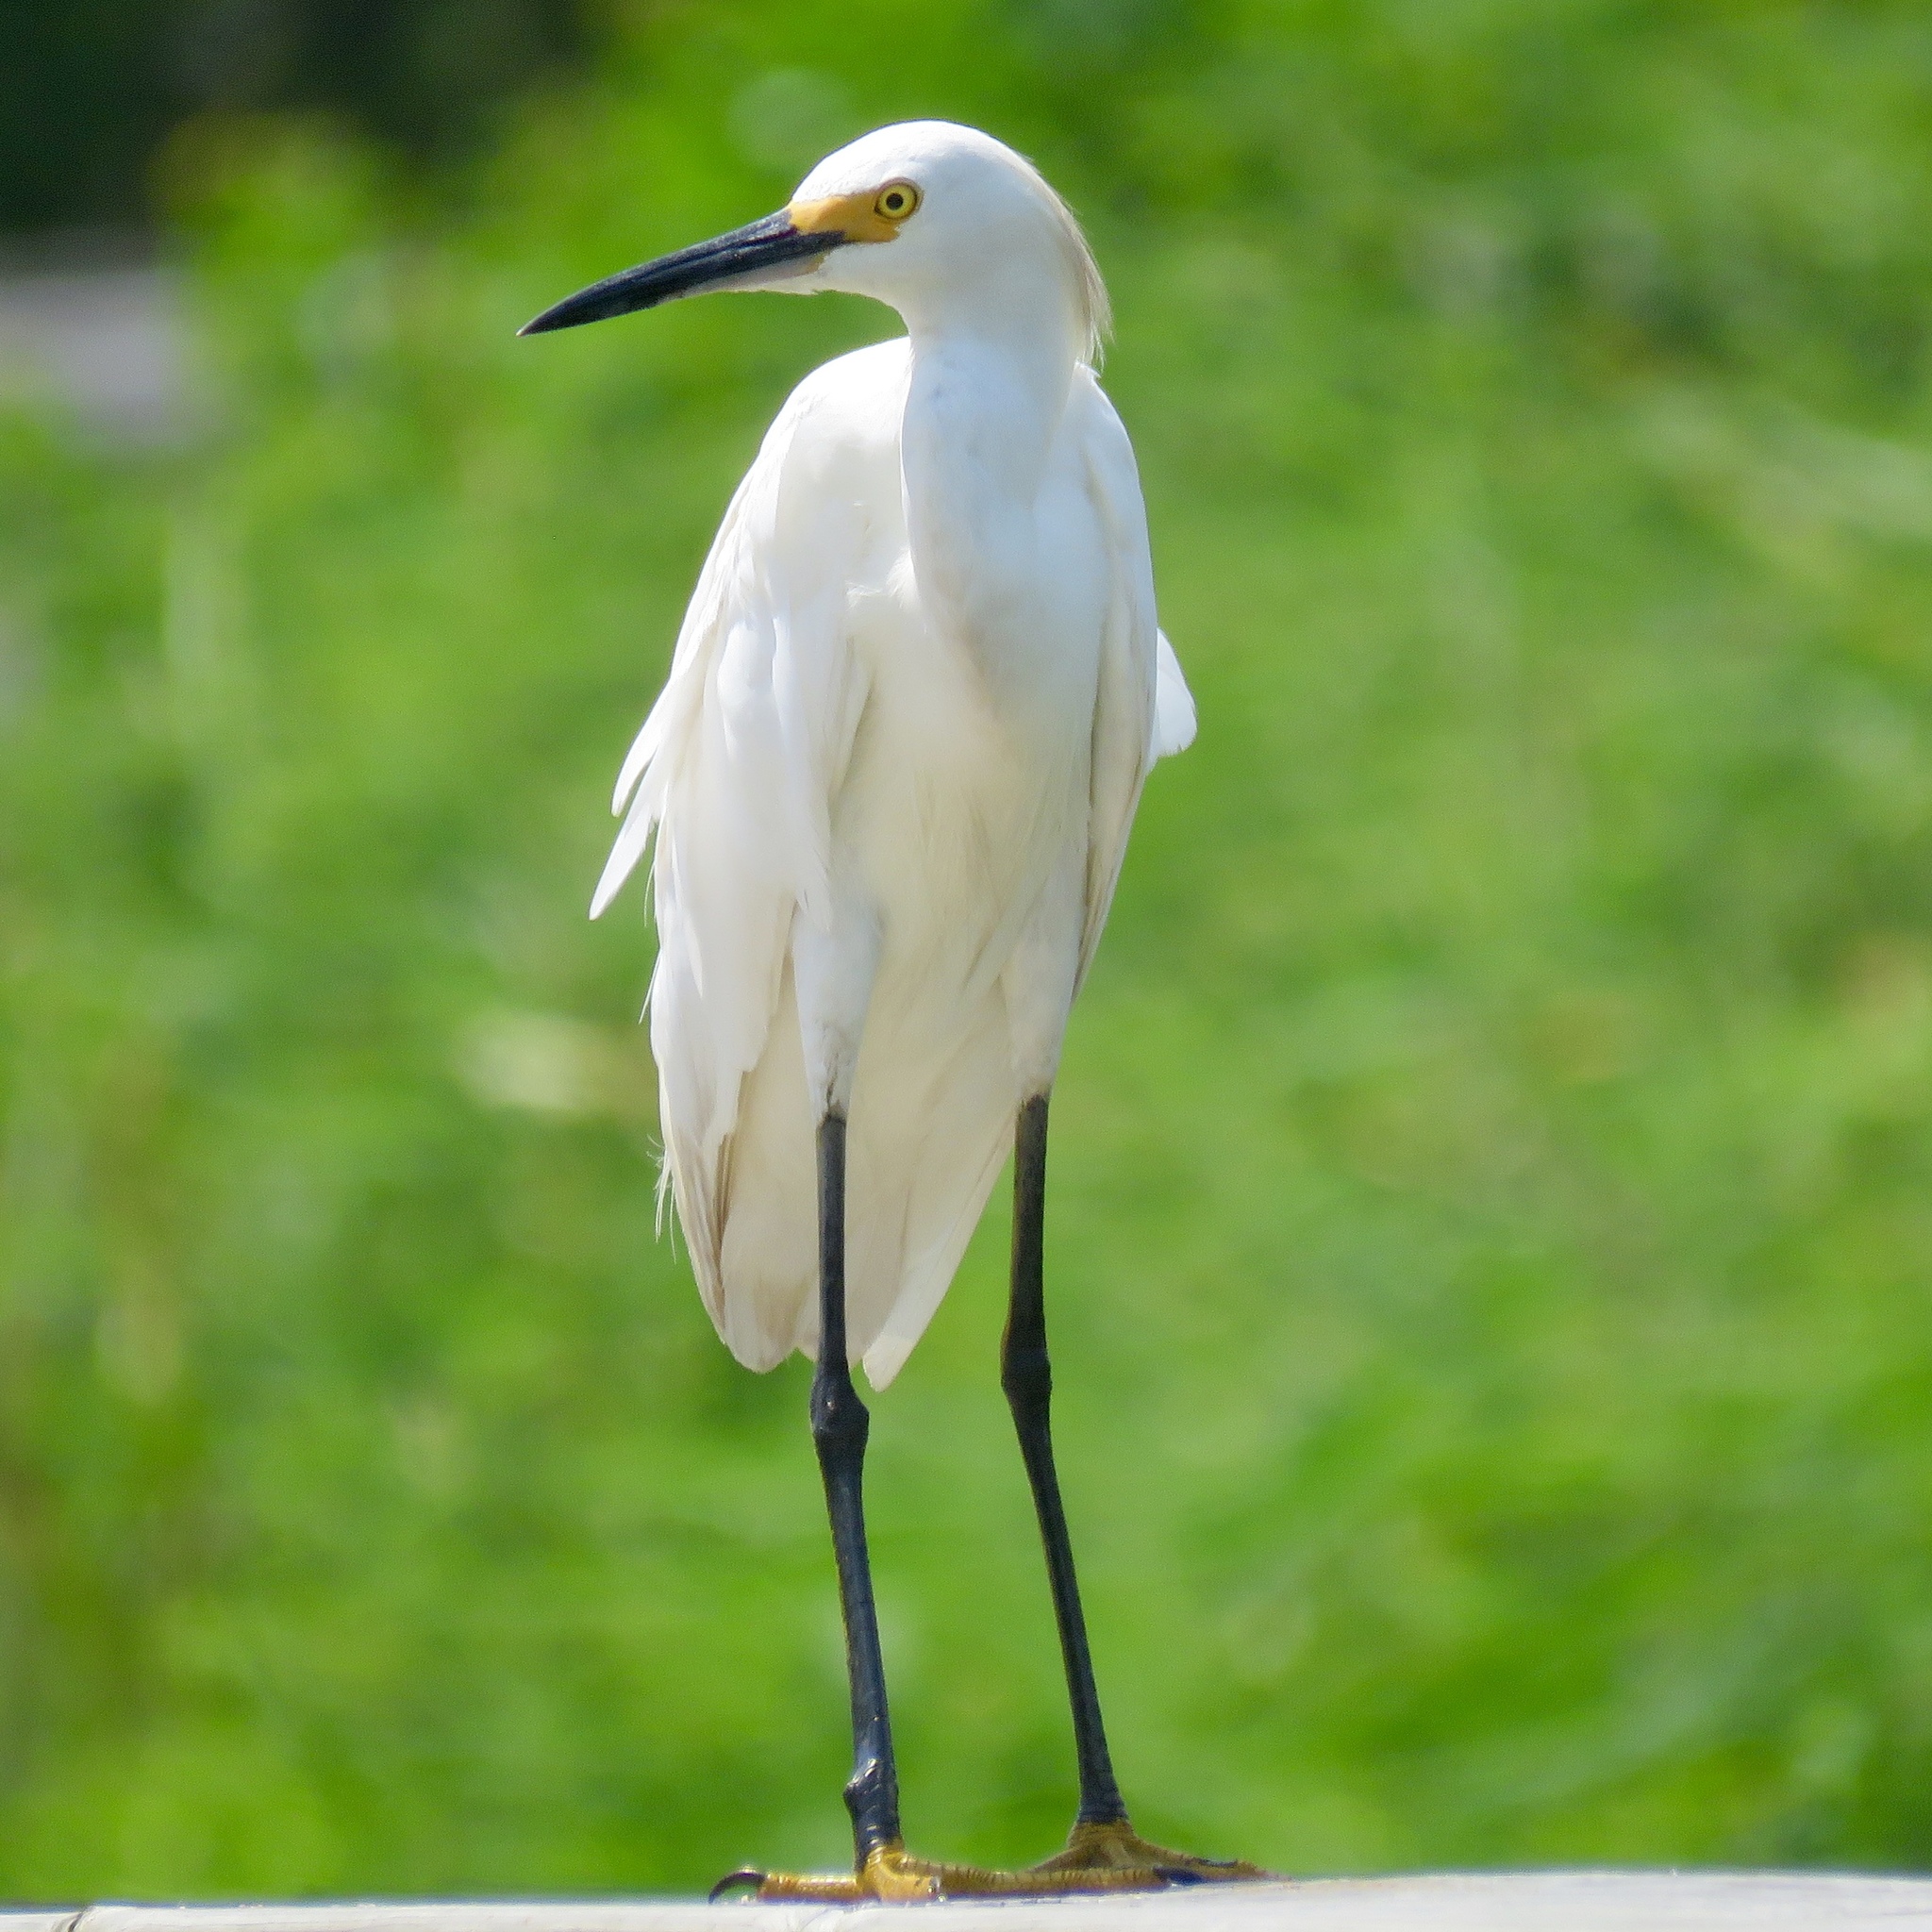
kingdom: Animalia
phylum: Chordata
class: Aves
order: Pelecaniformes
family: Ardeidae
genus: Egretta
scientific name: Egretta thula
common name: Snowy egret
